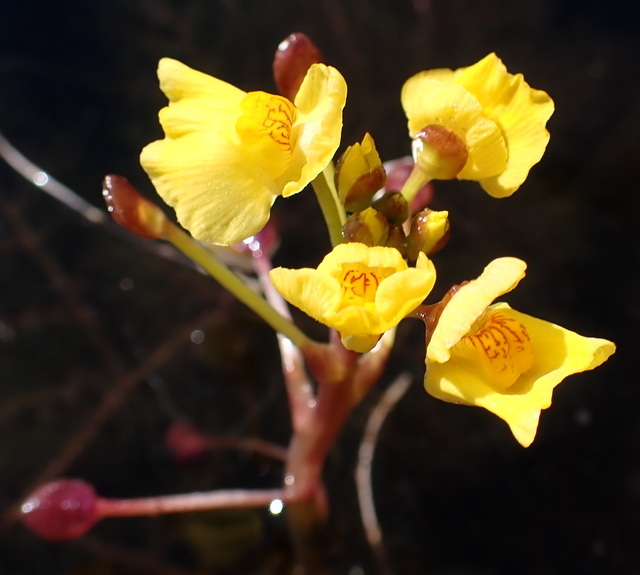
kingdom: Plantae
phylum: Tracheophyta
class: Magnoliopsida
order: Lamiales
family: Lentibulariaceae
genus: Utricularia
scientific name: Utricularia foliosa
